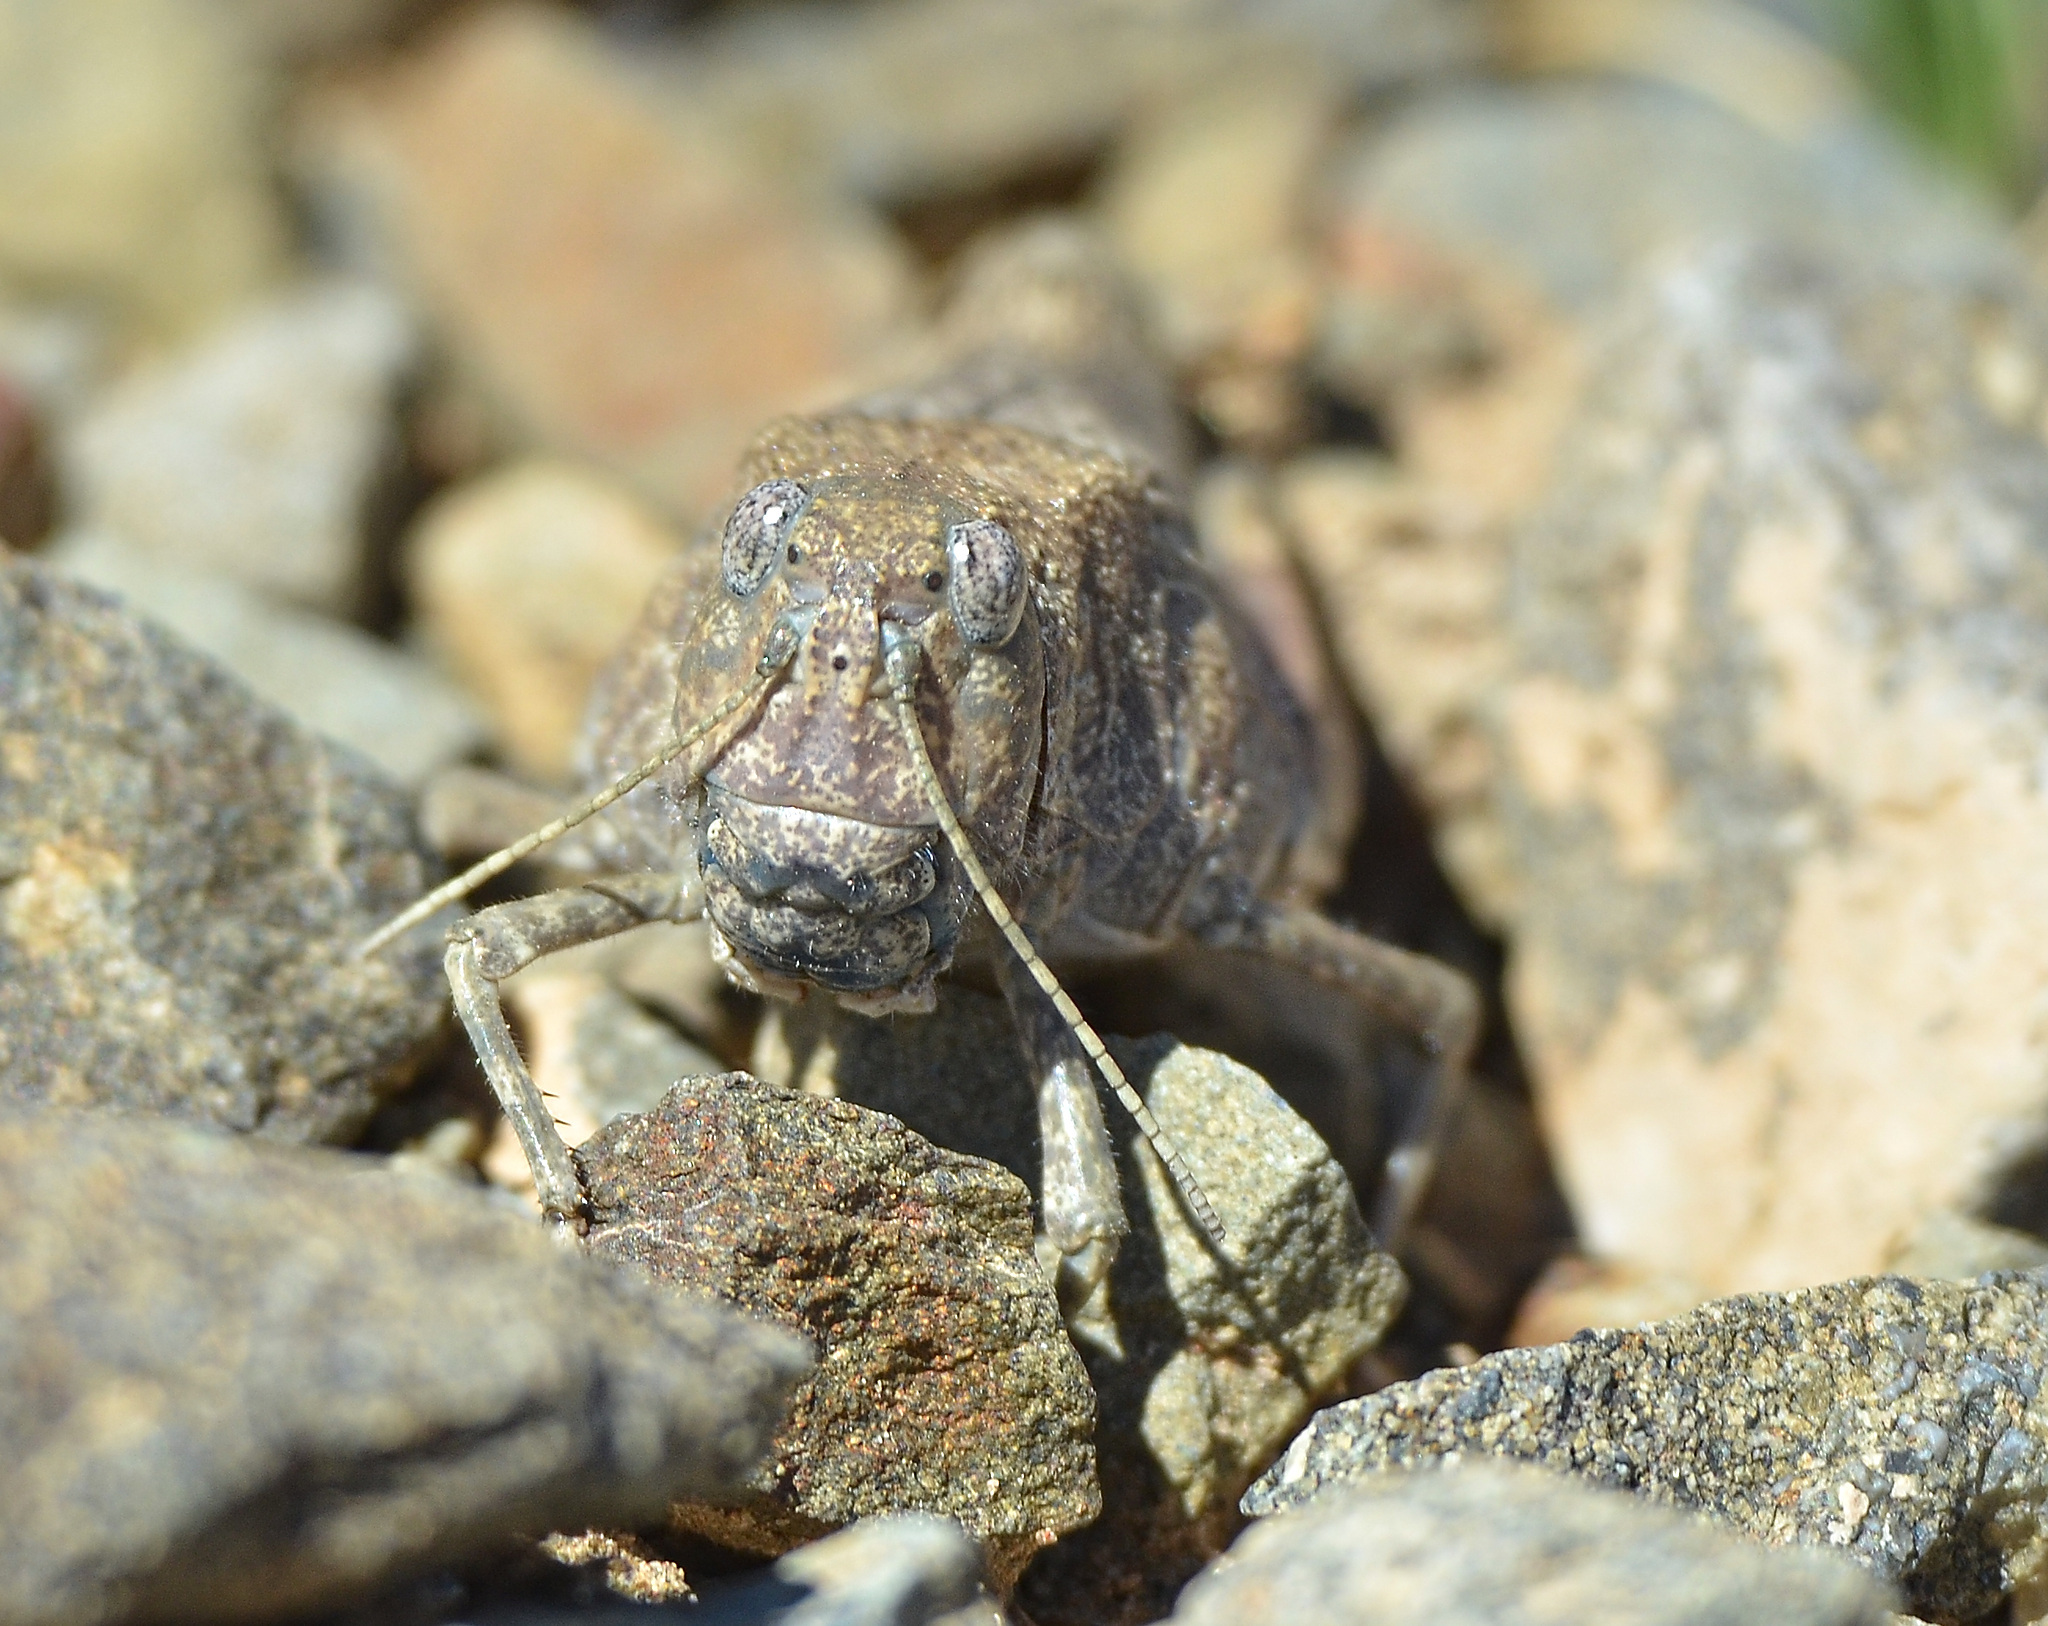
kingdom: Animalia
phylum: Arthropoda
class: Insecta
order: Orthoptera
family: Acrididae
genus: Bryodema
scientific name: Bryodema gebleri
